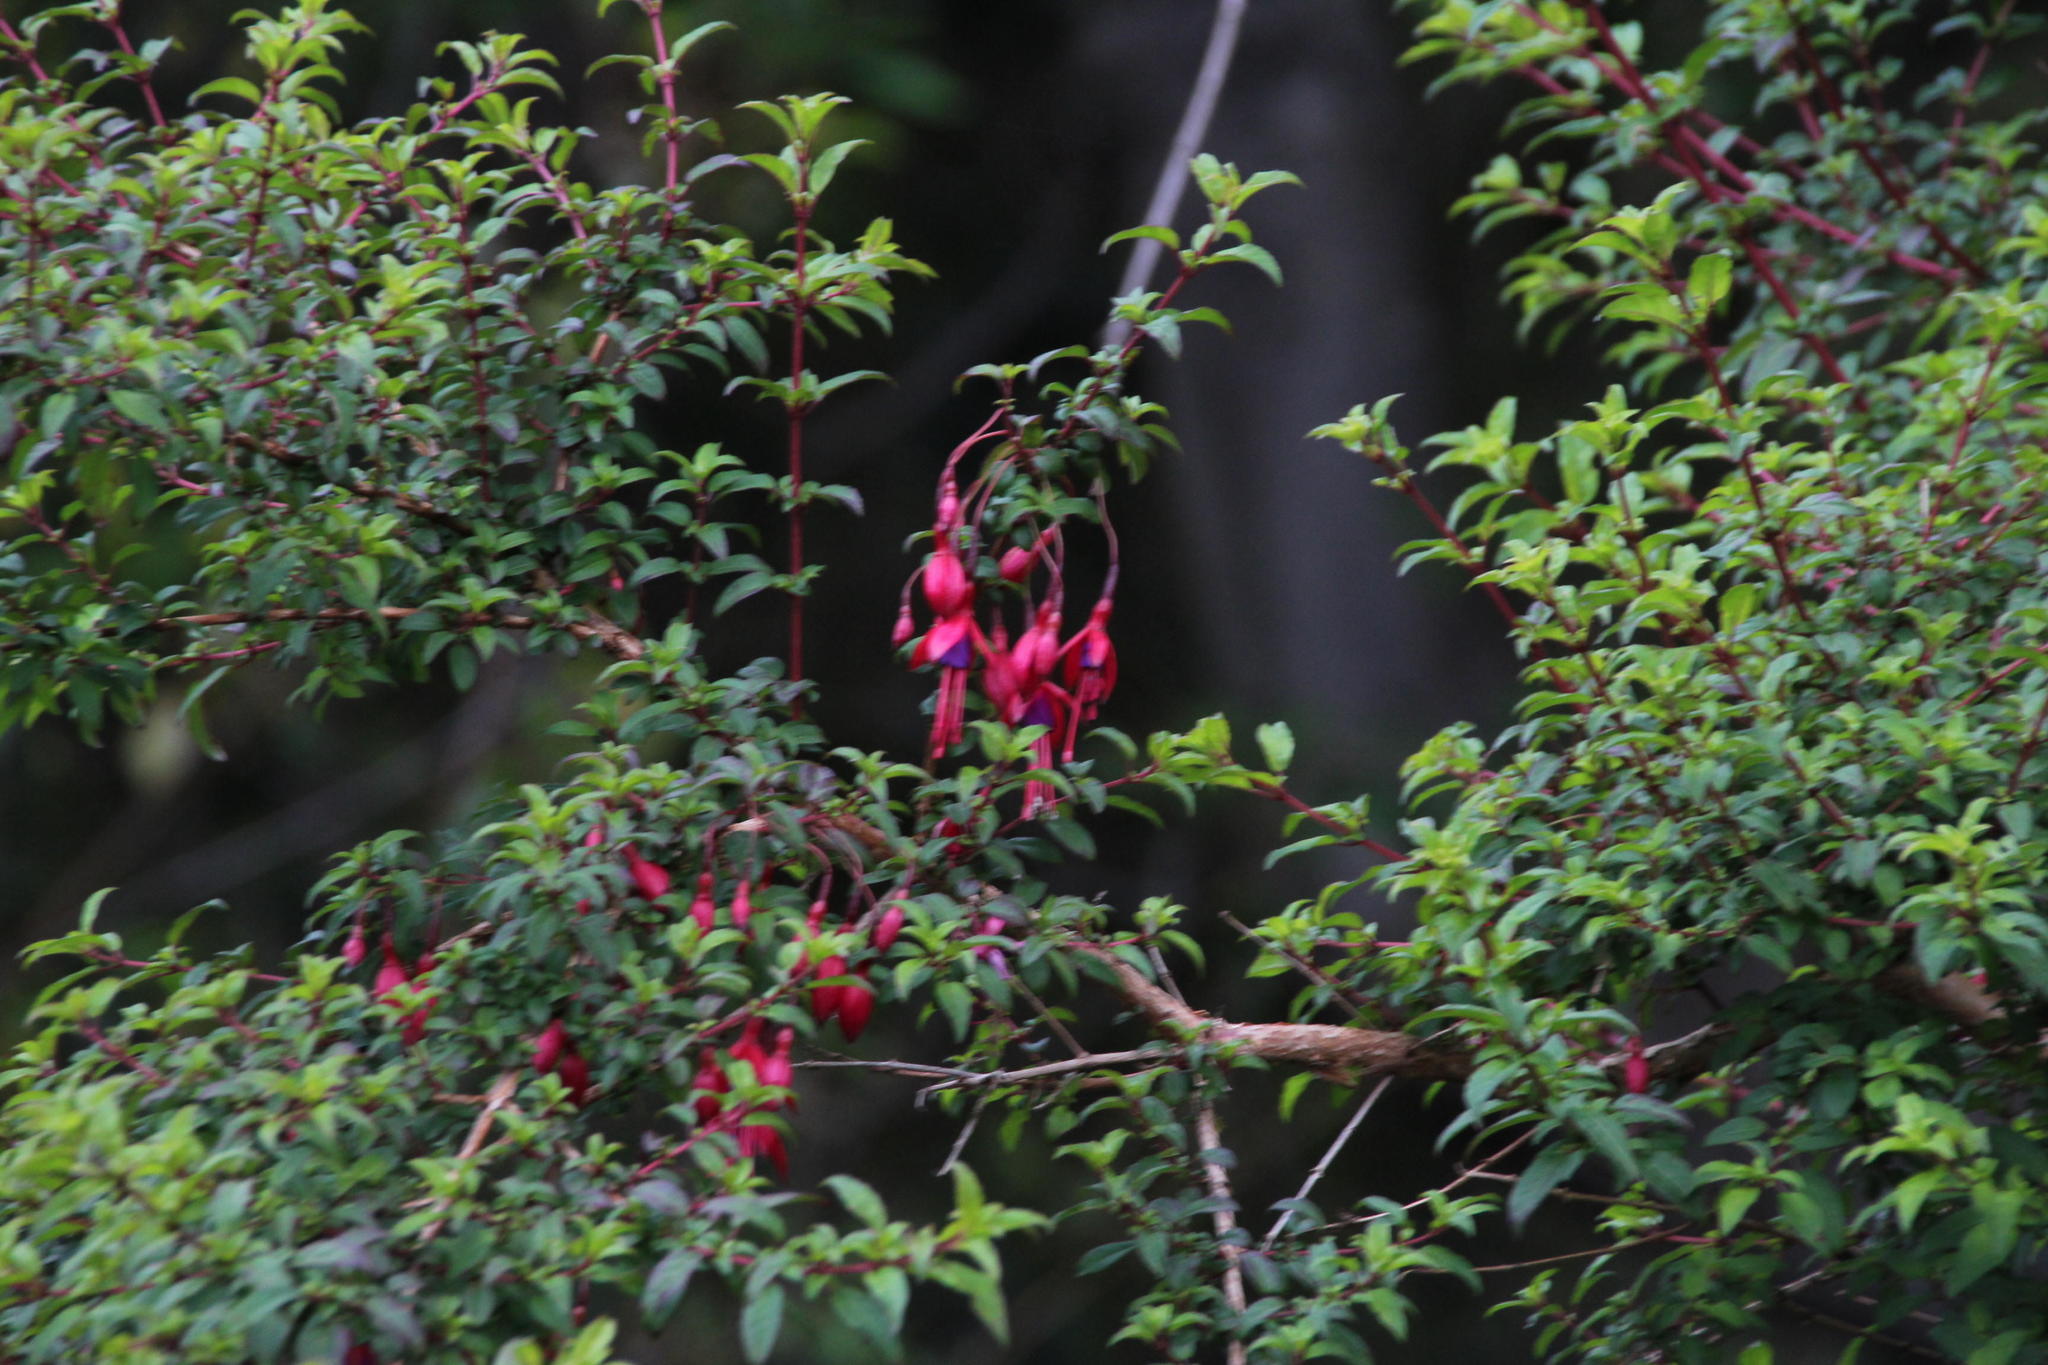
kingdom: Plantae
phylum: Tracheophyta
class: Magnoliopsida
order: Myrtales
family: Onagraceae
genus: Fuchsia
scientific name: Fuchsia magellanica
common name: Hardy fuchsia
